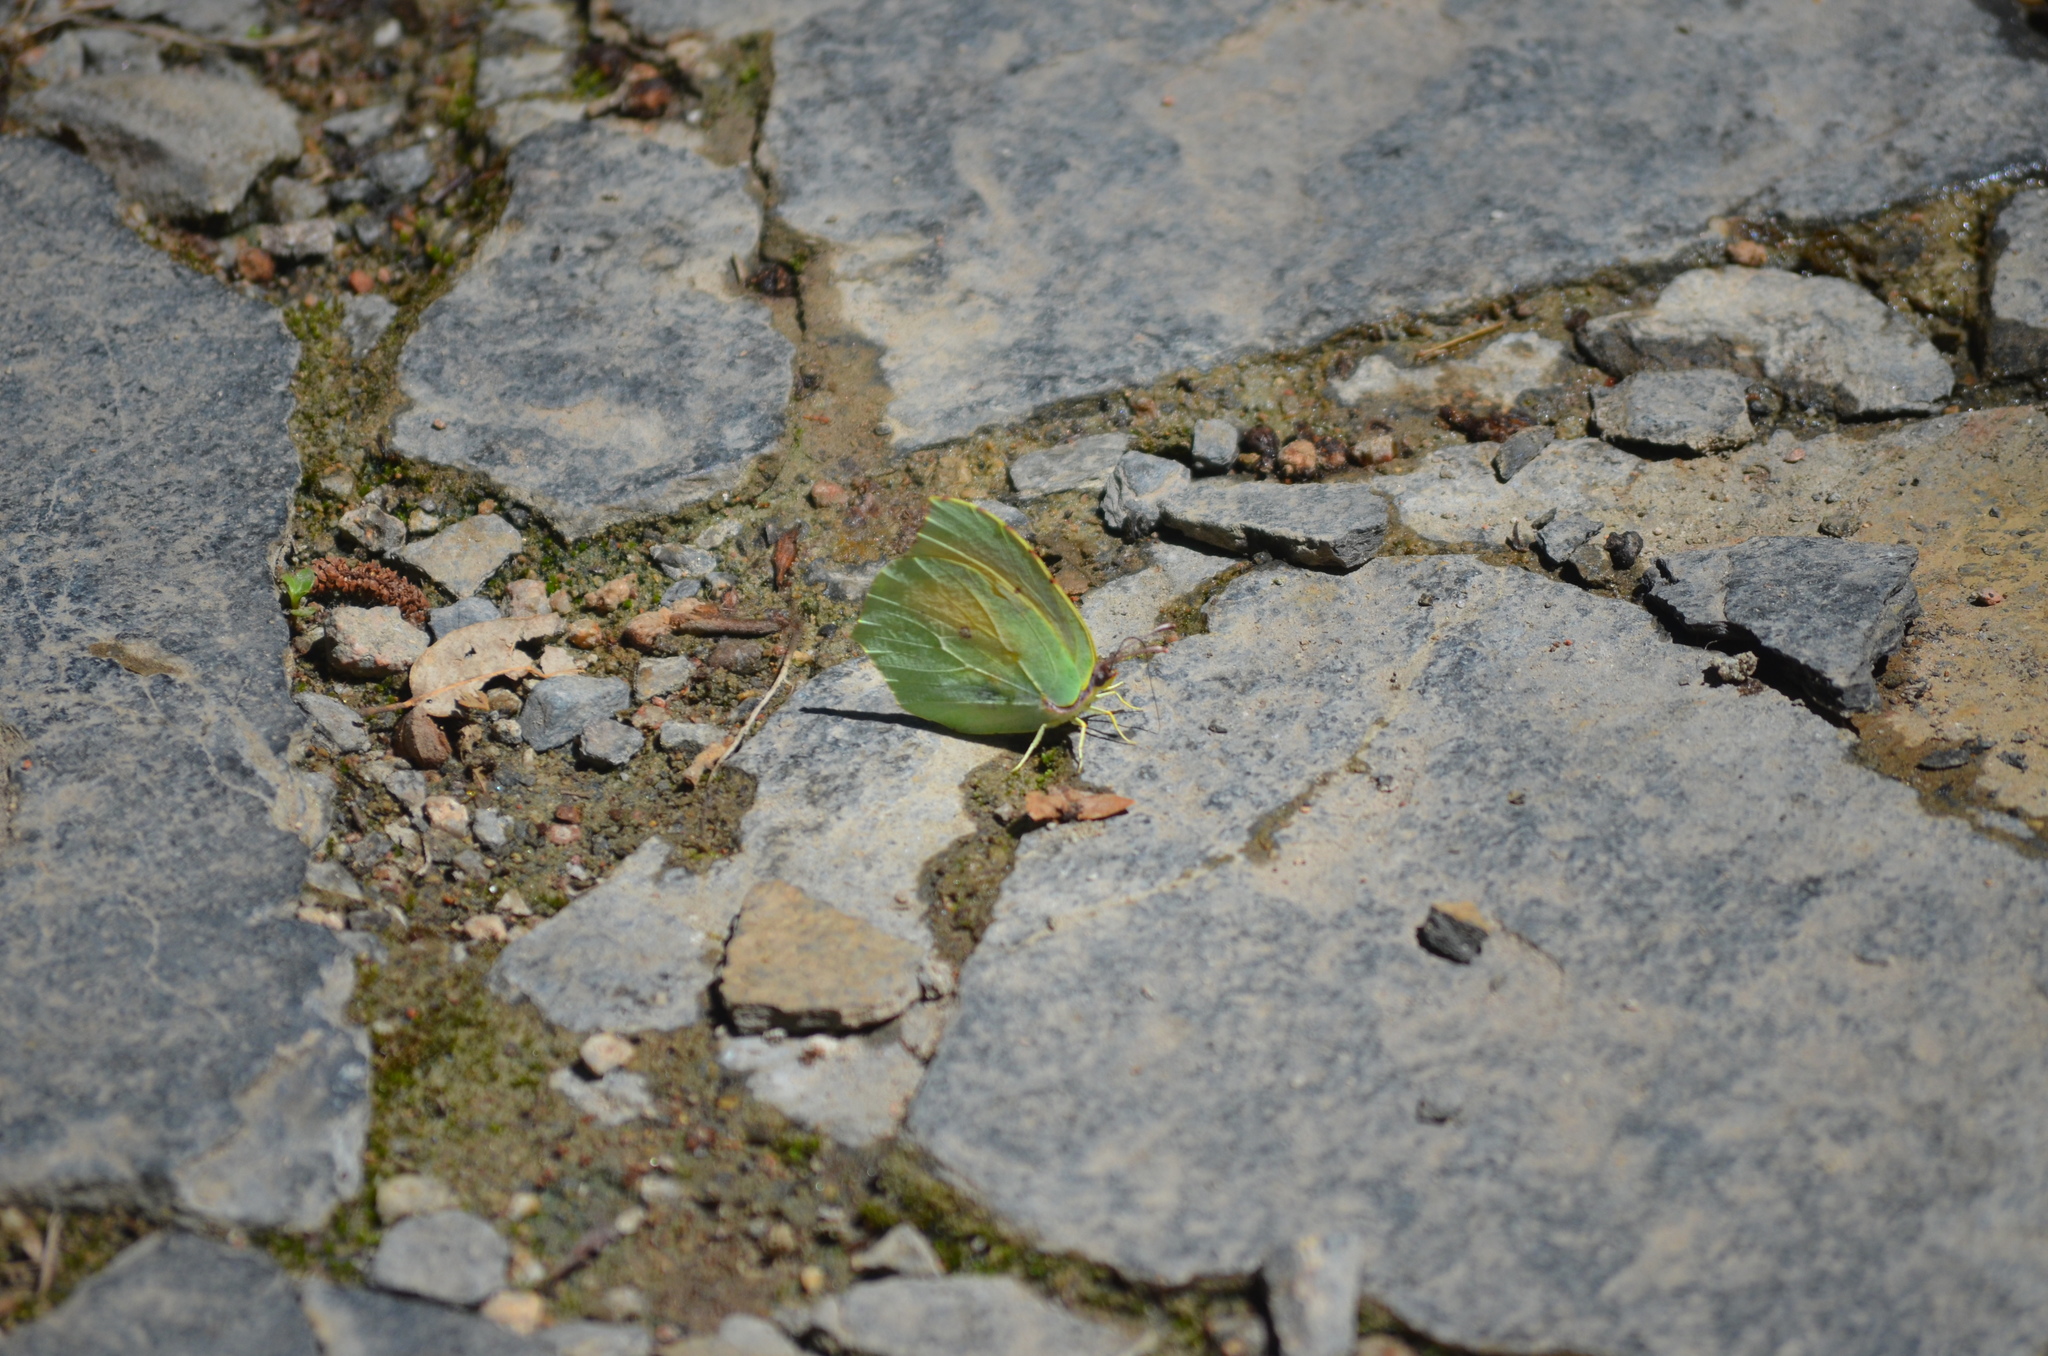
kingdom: Animalia
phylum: Arthropoda
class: Insecta
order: Lepidoptera
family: Pieridae
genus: Gonepteryx
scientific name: Gonepteryx cleopatra
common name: Cleopatra
